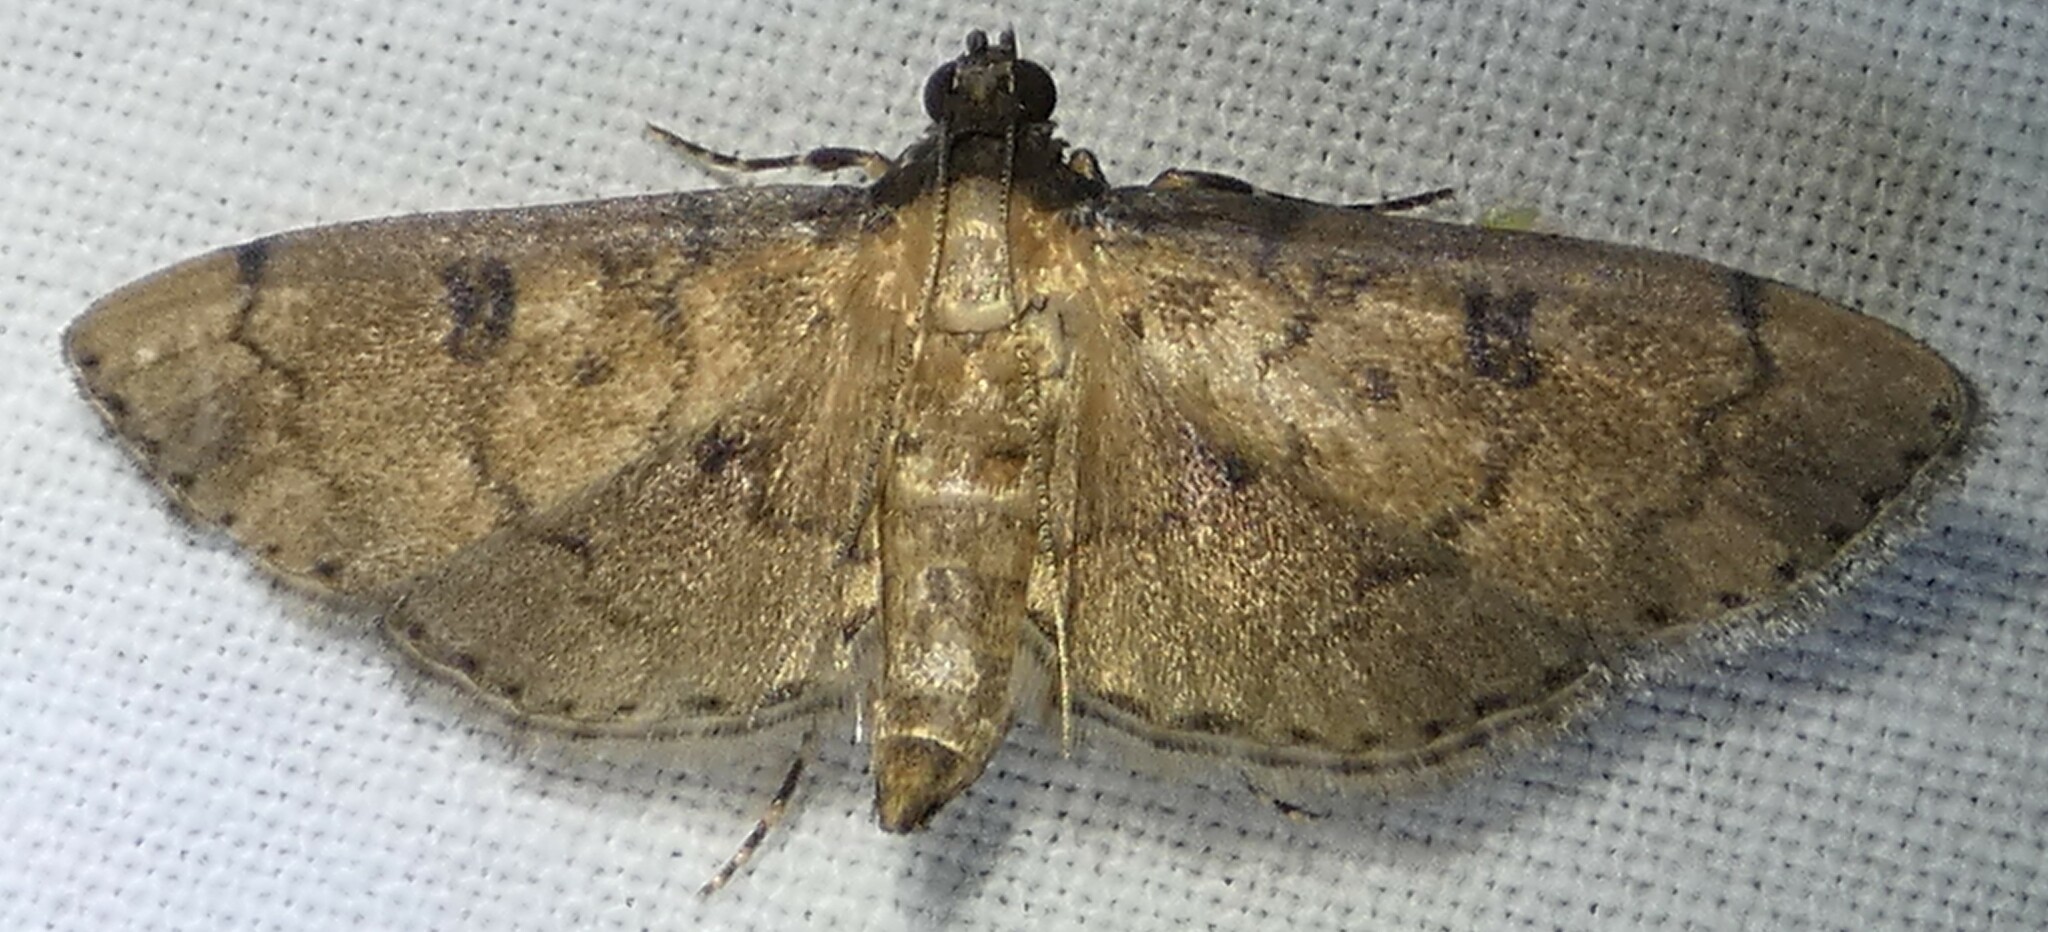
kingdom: Animalia
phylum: Arthropoda
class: Insecta
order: Lepidoptera
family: Crambidae
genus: Nacoleia
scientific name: Nacoleia charesalis
